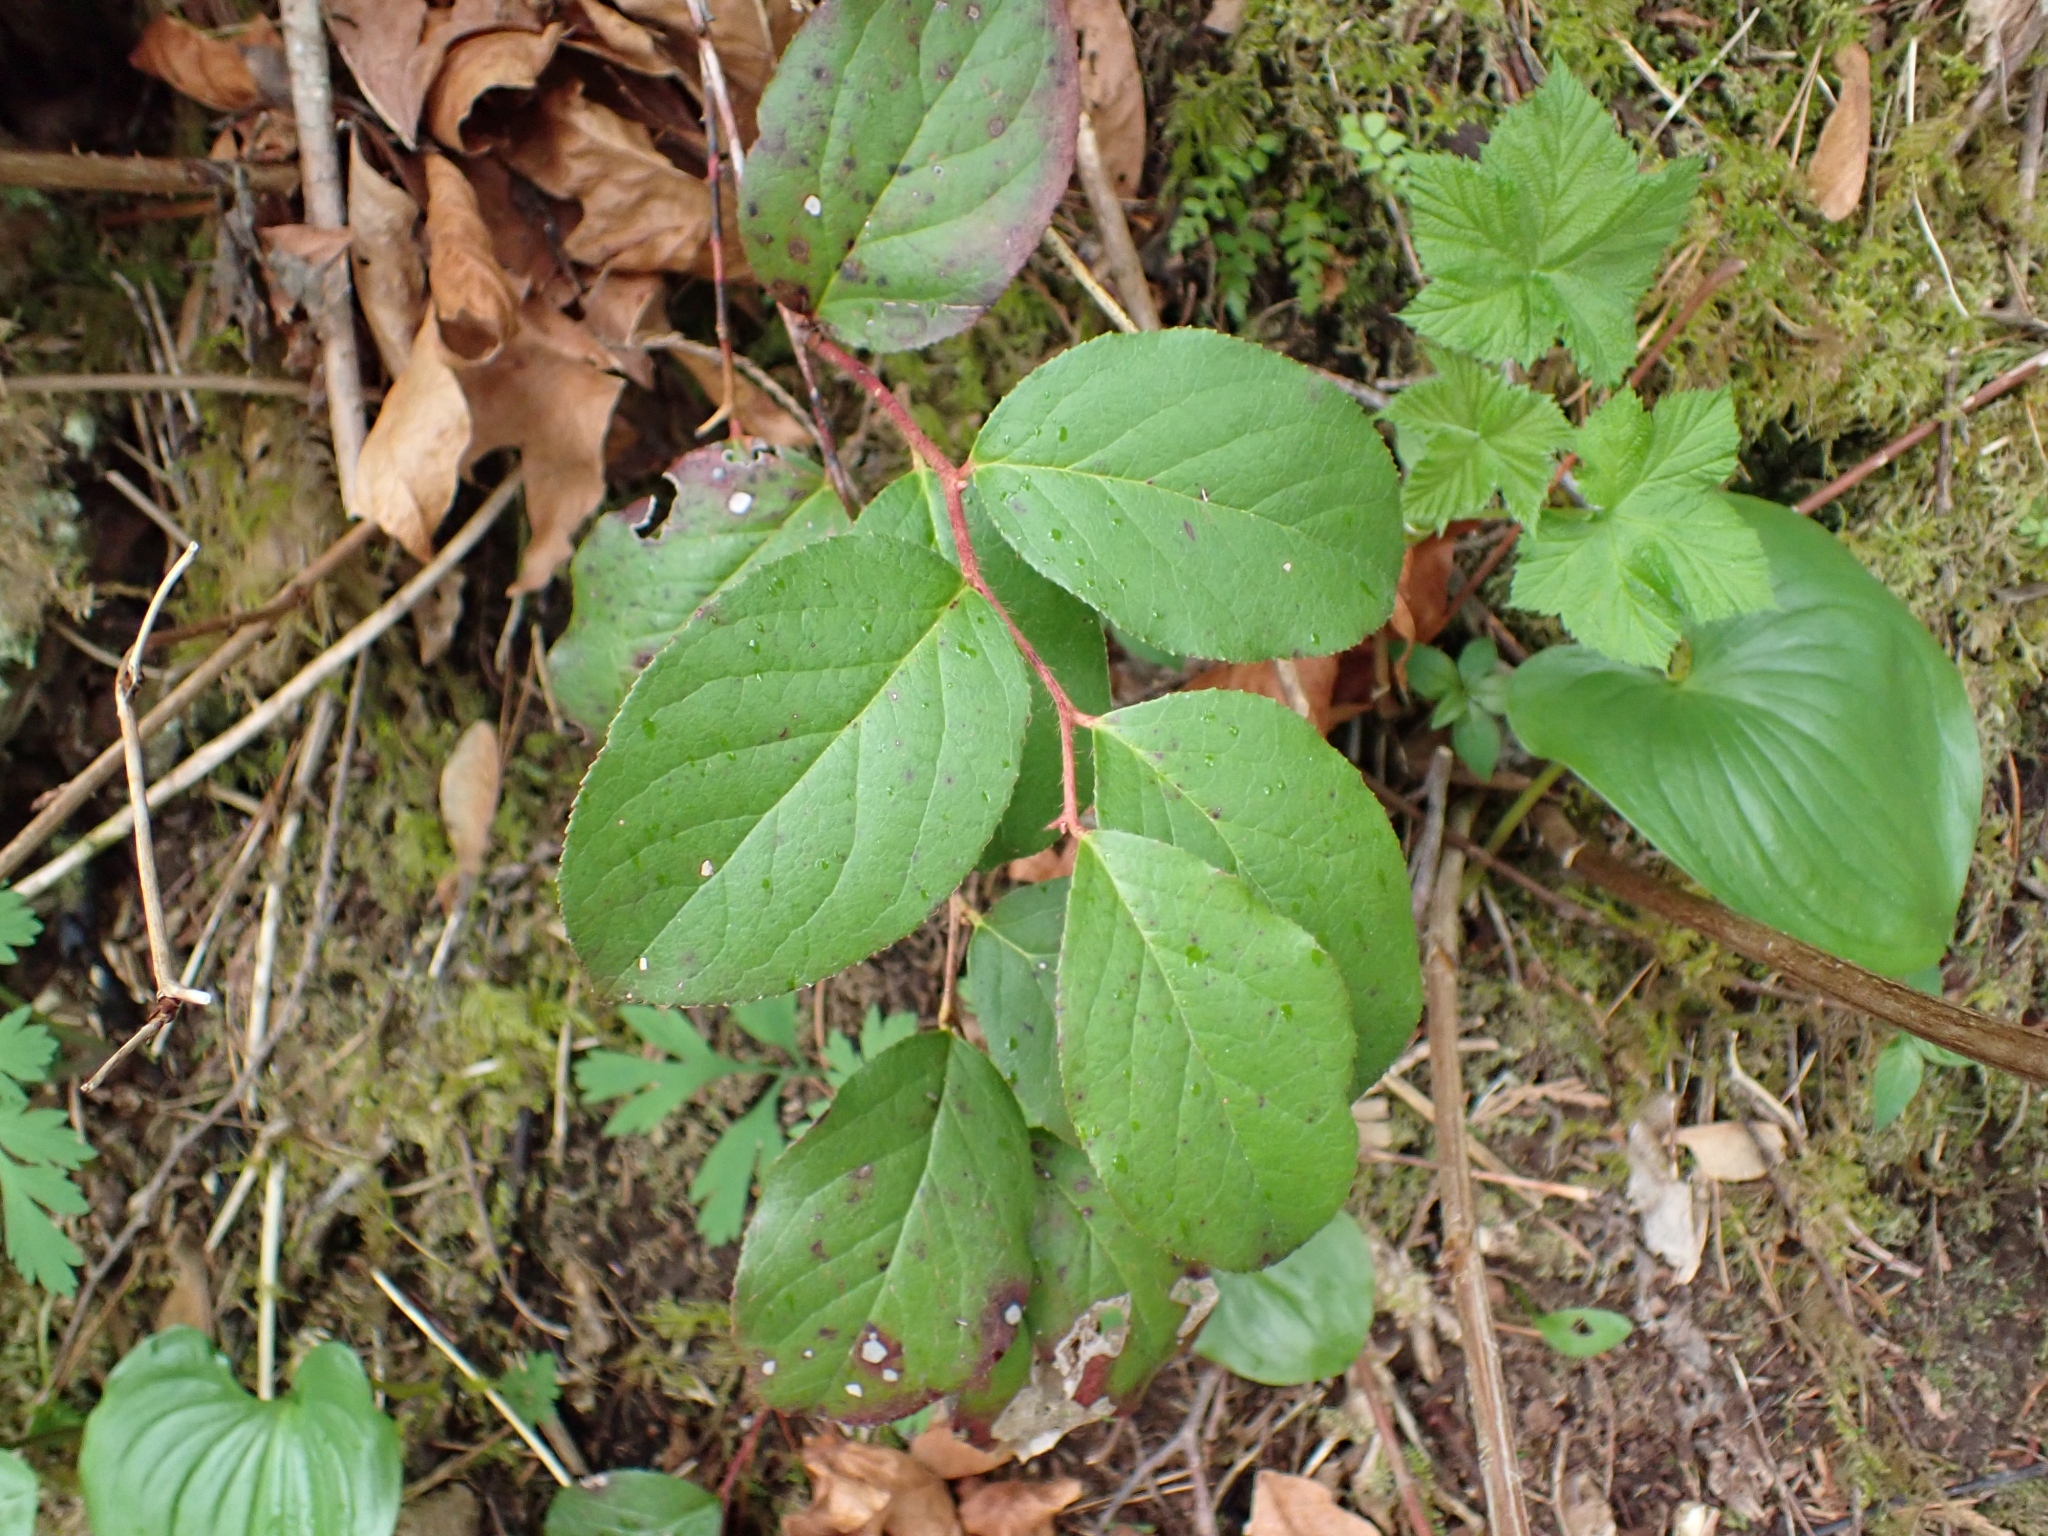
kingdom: Plantae
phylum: Tracheophyta
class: Magnoliopsida
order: Ericales
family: Ericaceae
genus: Gaultheria
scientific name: Gaultheria shallon
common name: Shallon
